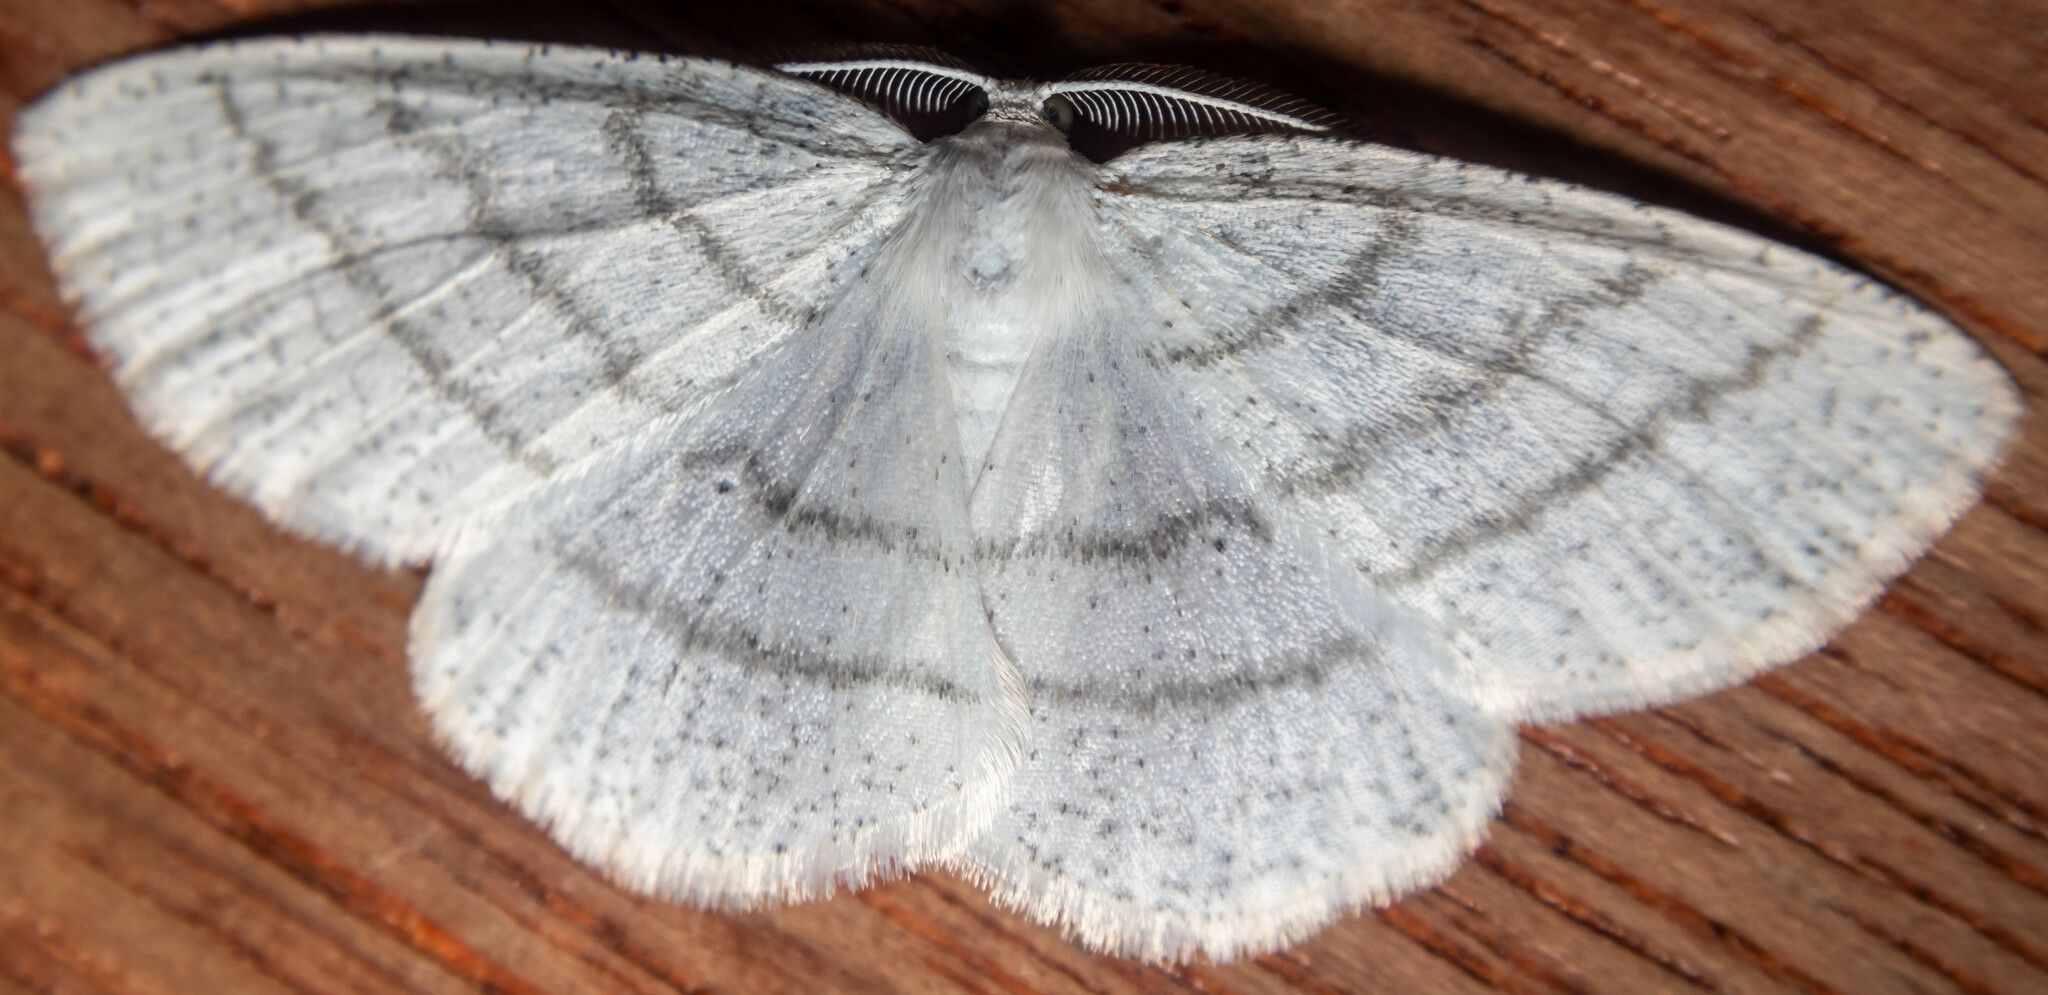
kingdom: Animalia
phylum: Arthropoda
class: Insecta
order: Lepidoptera
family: Geometridae
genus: Cabera
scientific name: Cabera pusaria
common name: Common white wave
